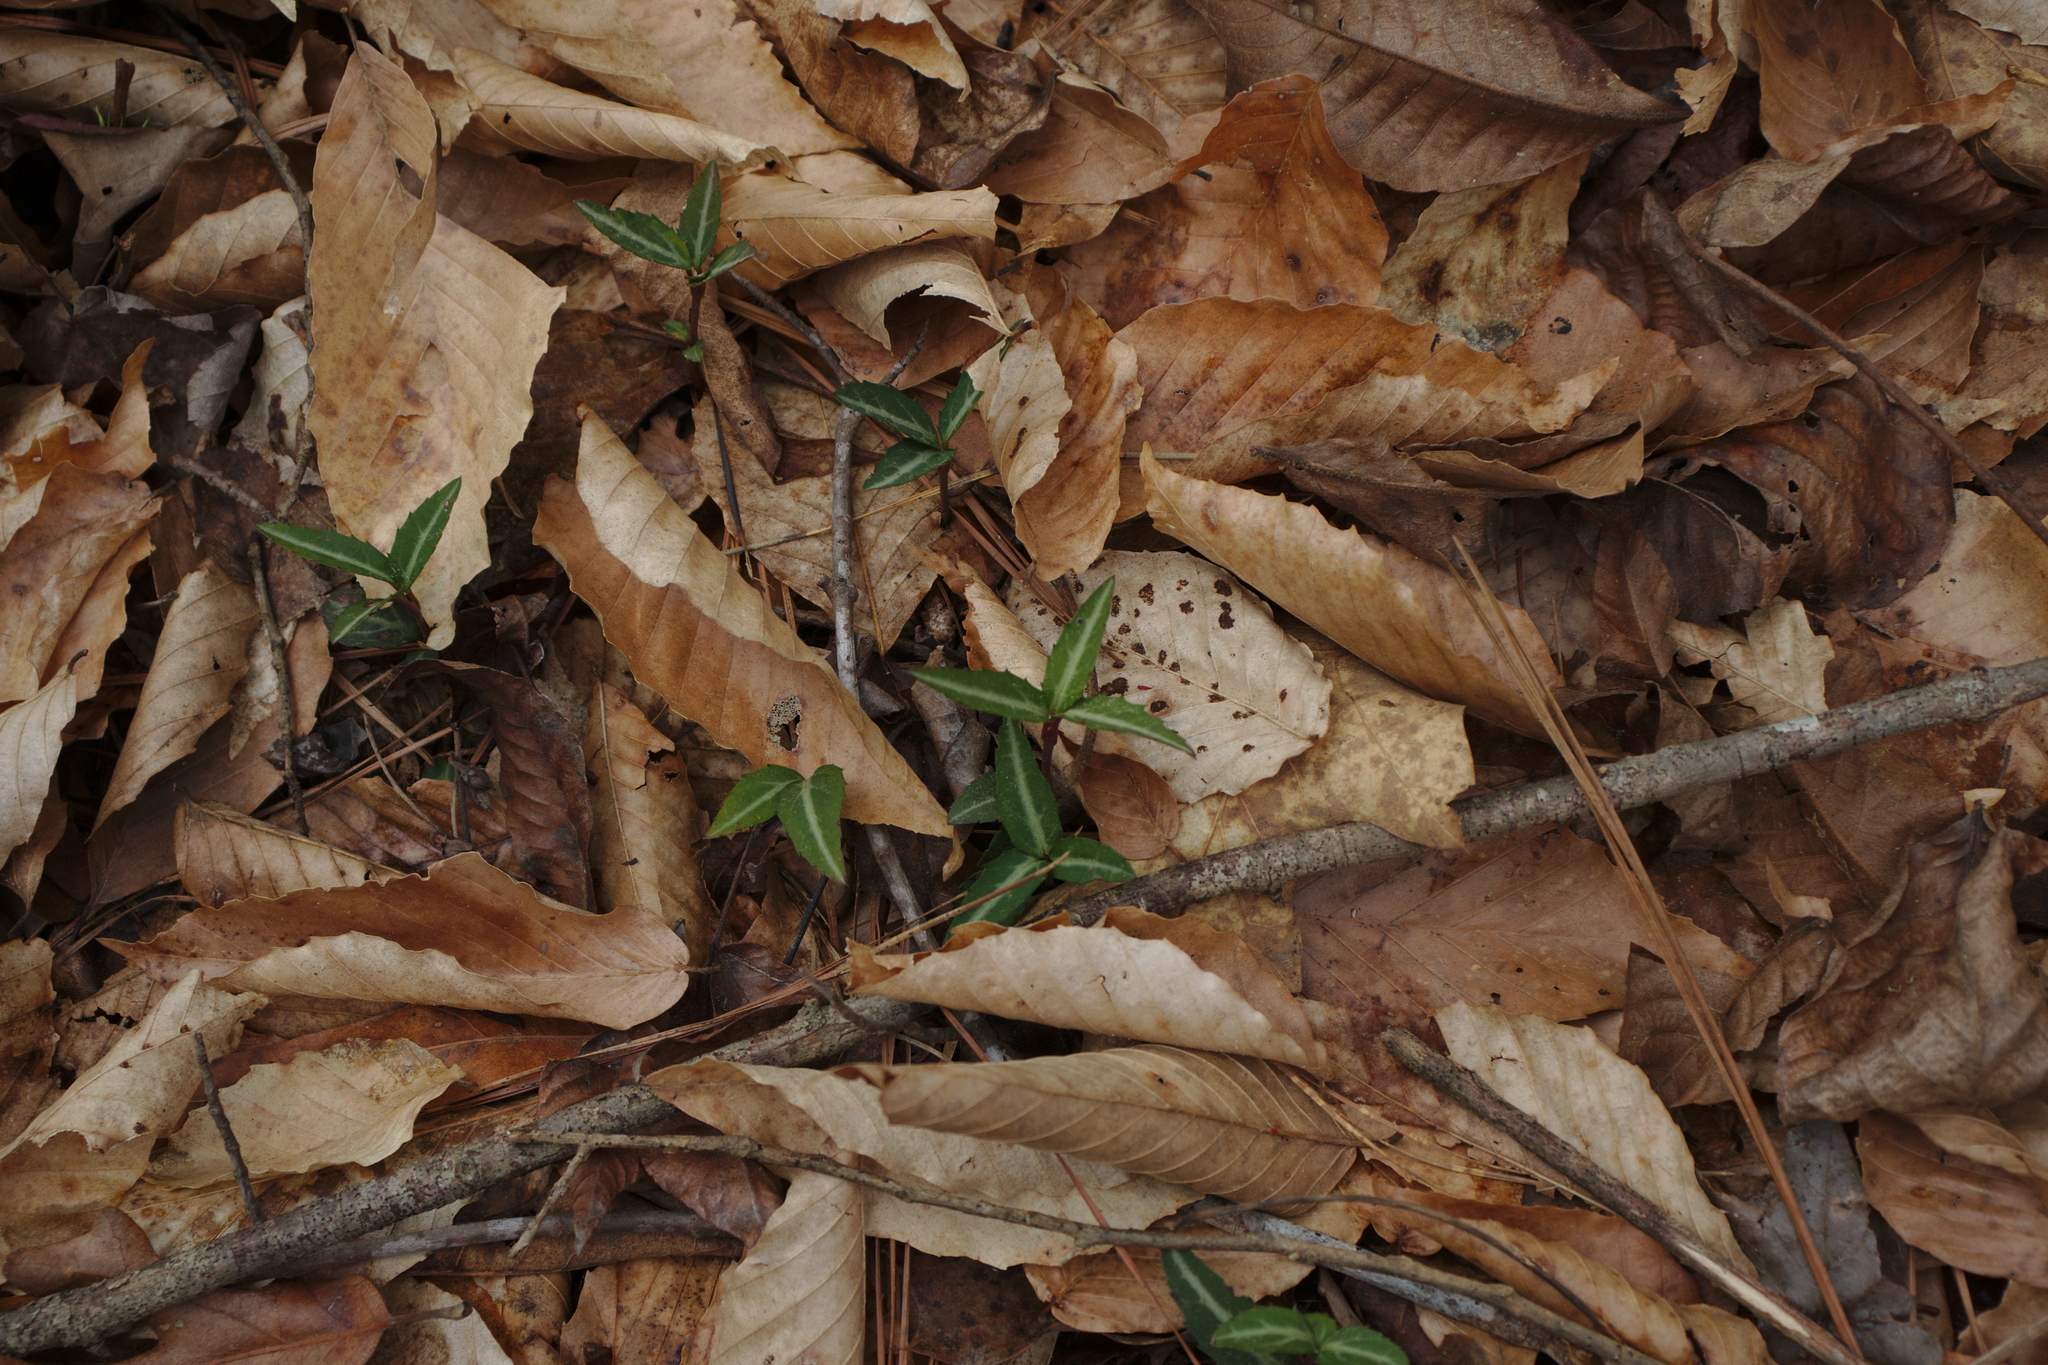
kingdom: Plantae
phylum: Tracheophyta
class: Magnoliopsida
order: Ericales
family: Ericaceae
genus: Chimaphila
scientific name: Chimaphila maculata
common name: Spotted pipsissewa
